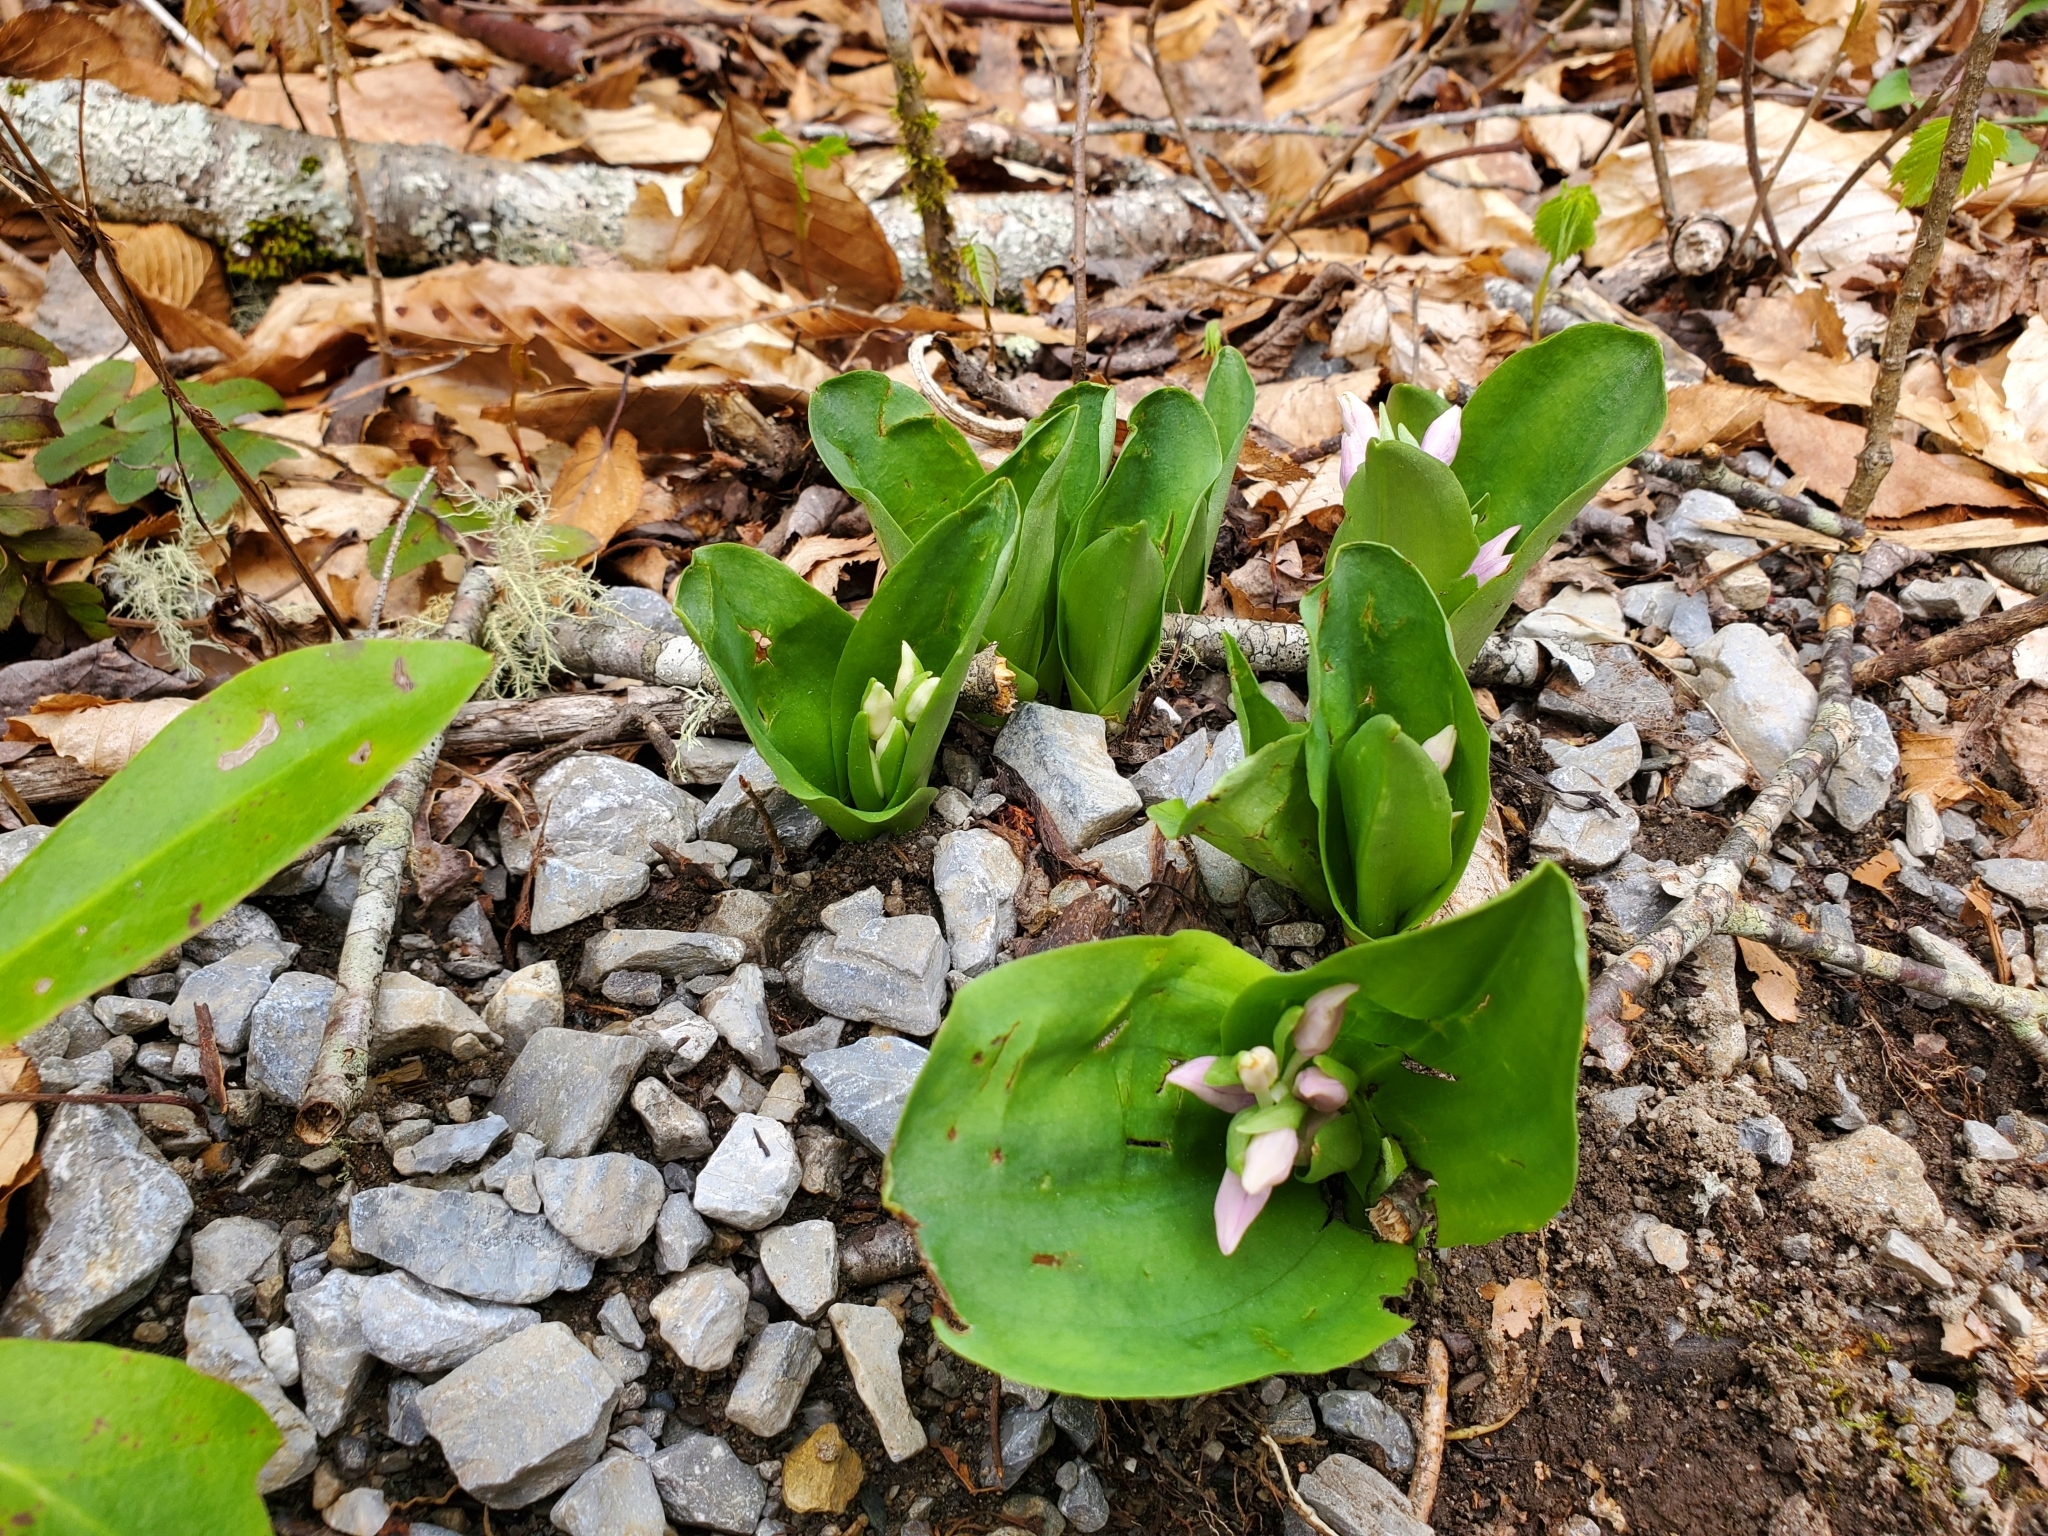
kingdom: Plantae
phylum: Tracheophyta
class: Liliopsida
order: Asparagales
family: Orchidaceae
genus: Galearis
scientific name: Galearis spectabilis
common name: Purple-hooded orchis
